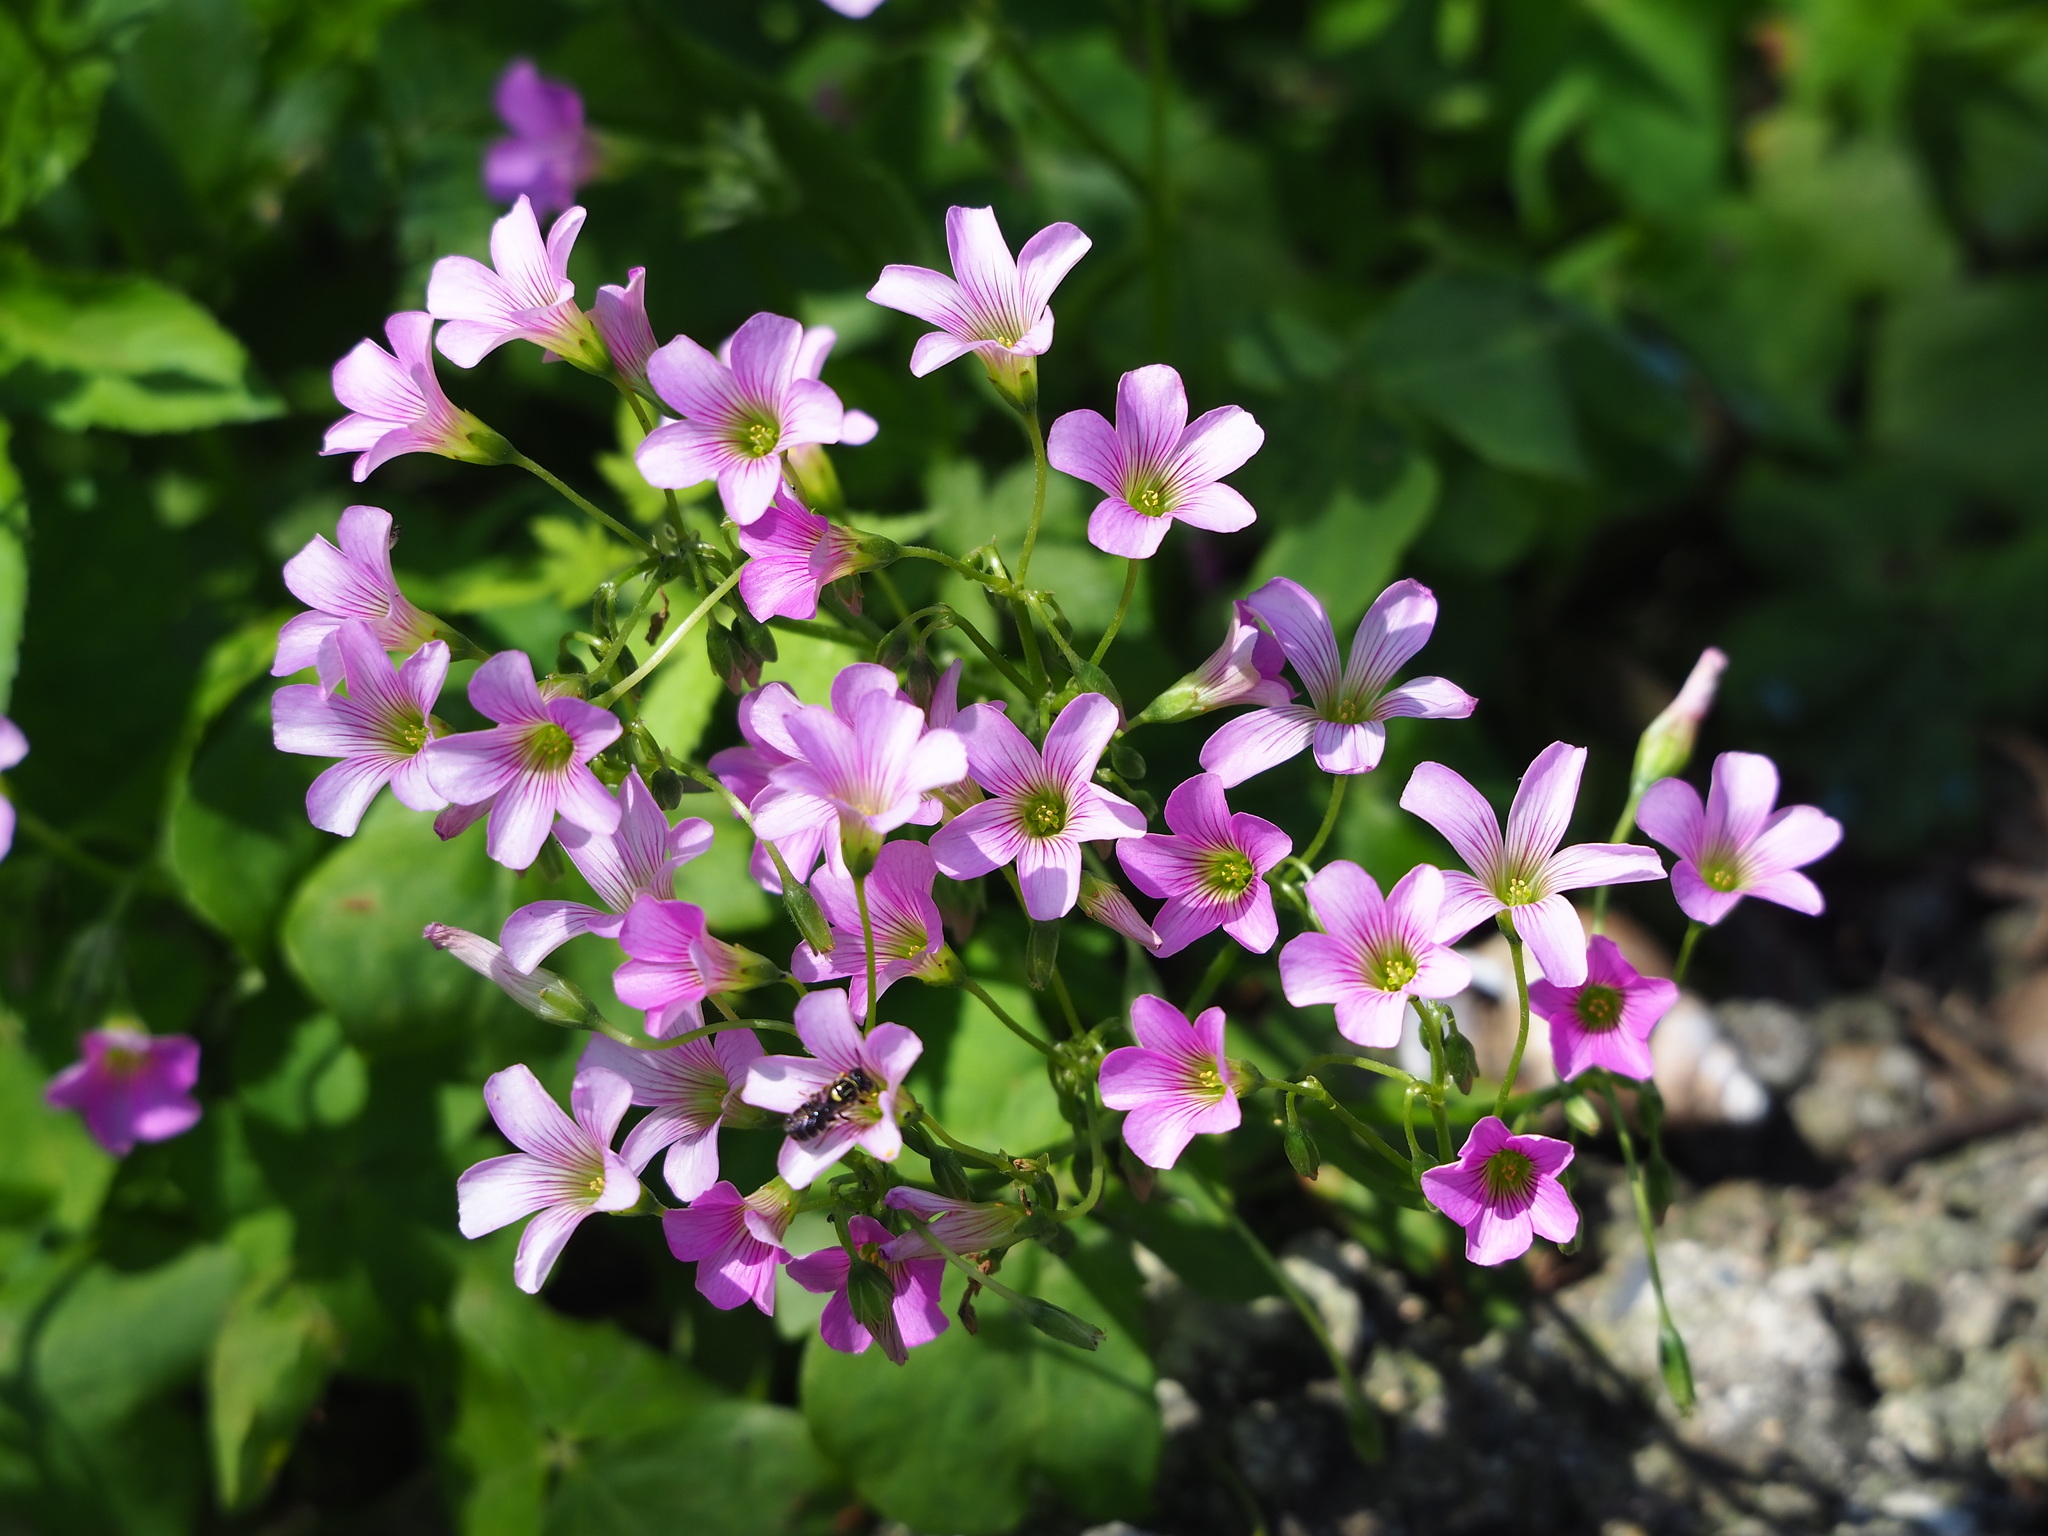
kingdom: Plantae
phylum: Tracheophyta
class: Magnoliopsida
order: Oxalidales
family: Oxalidaceae
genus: Oxalis
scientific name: Oxalis debilis
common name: Large-flowered pink-sorrel
